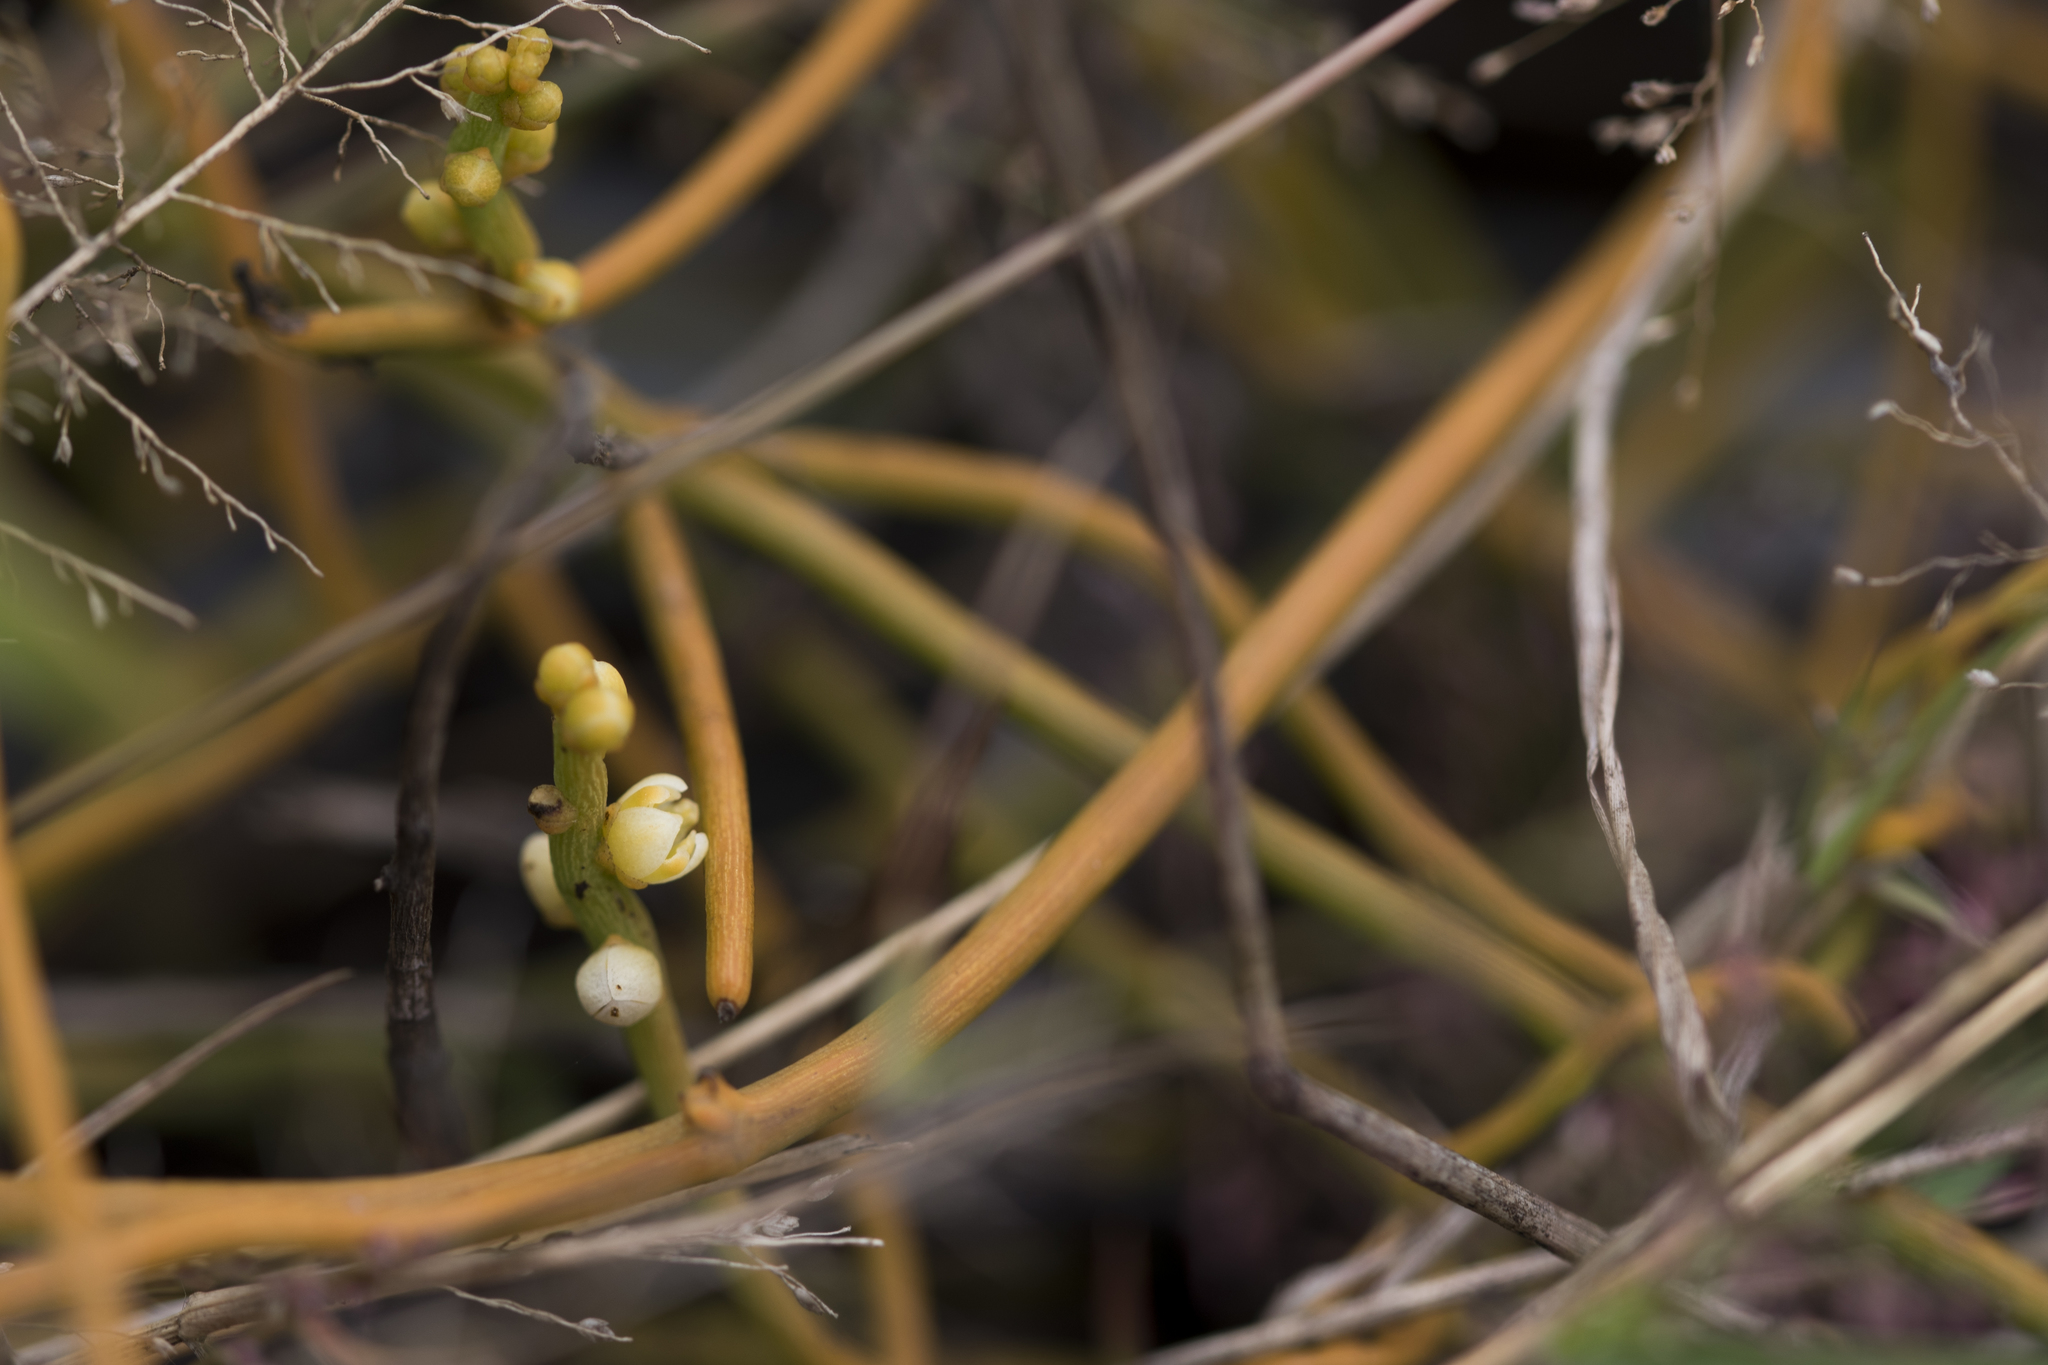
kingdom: Plantae
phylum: Tracheophyta
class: Magnoliopsida
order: Laurales
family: Lauraceae
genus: Cassytha
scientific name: Cassytha filiformis
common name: Dodder-laurel
